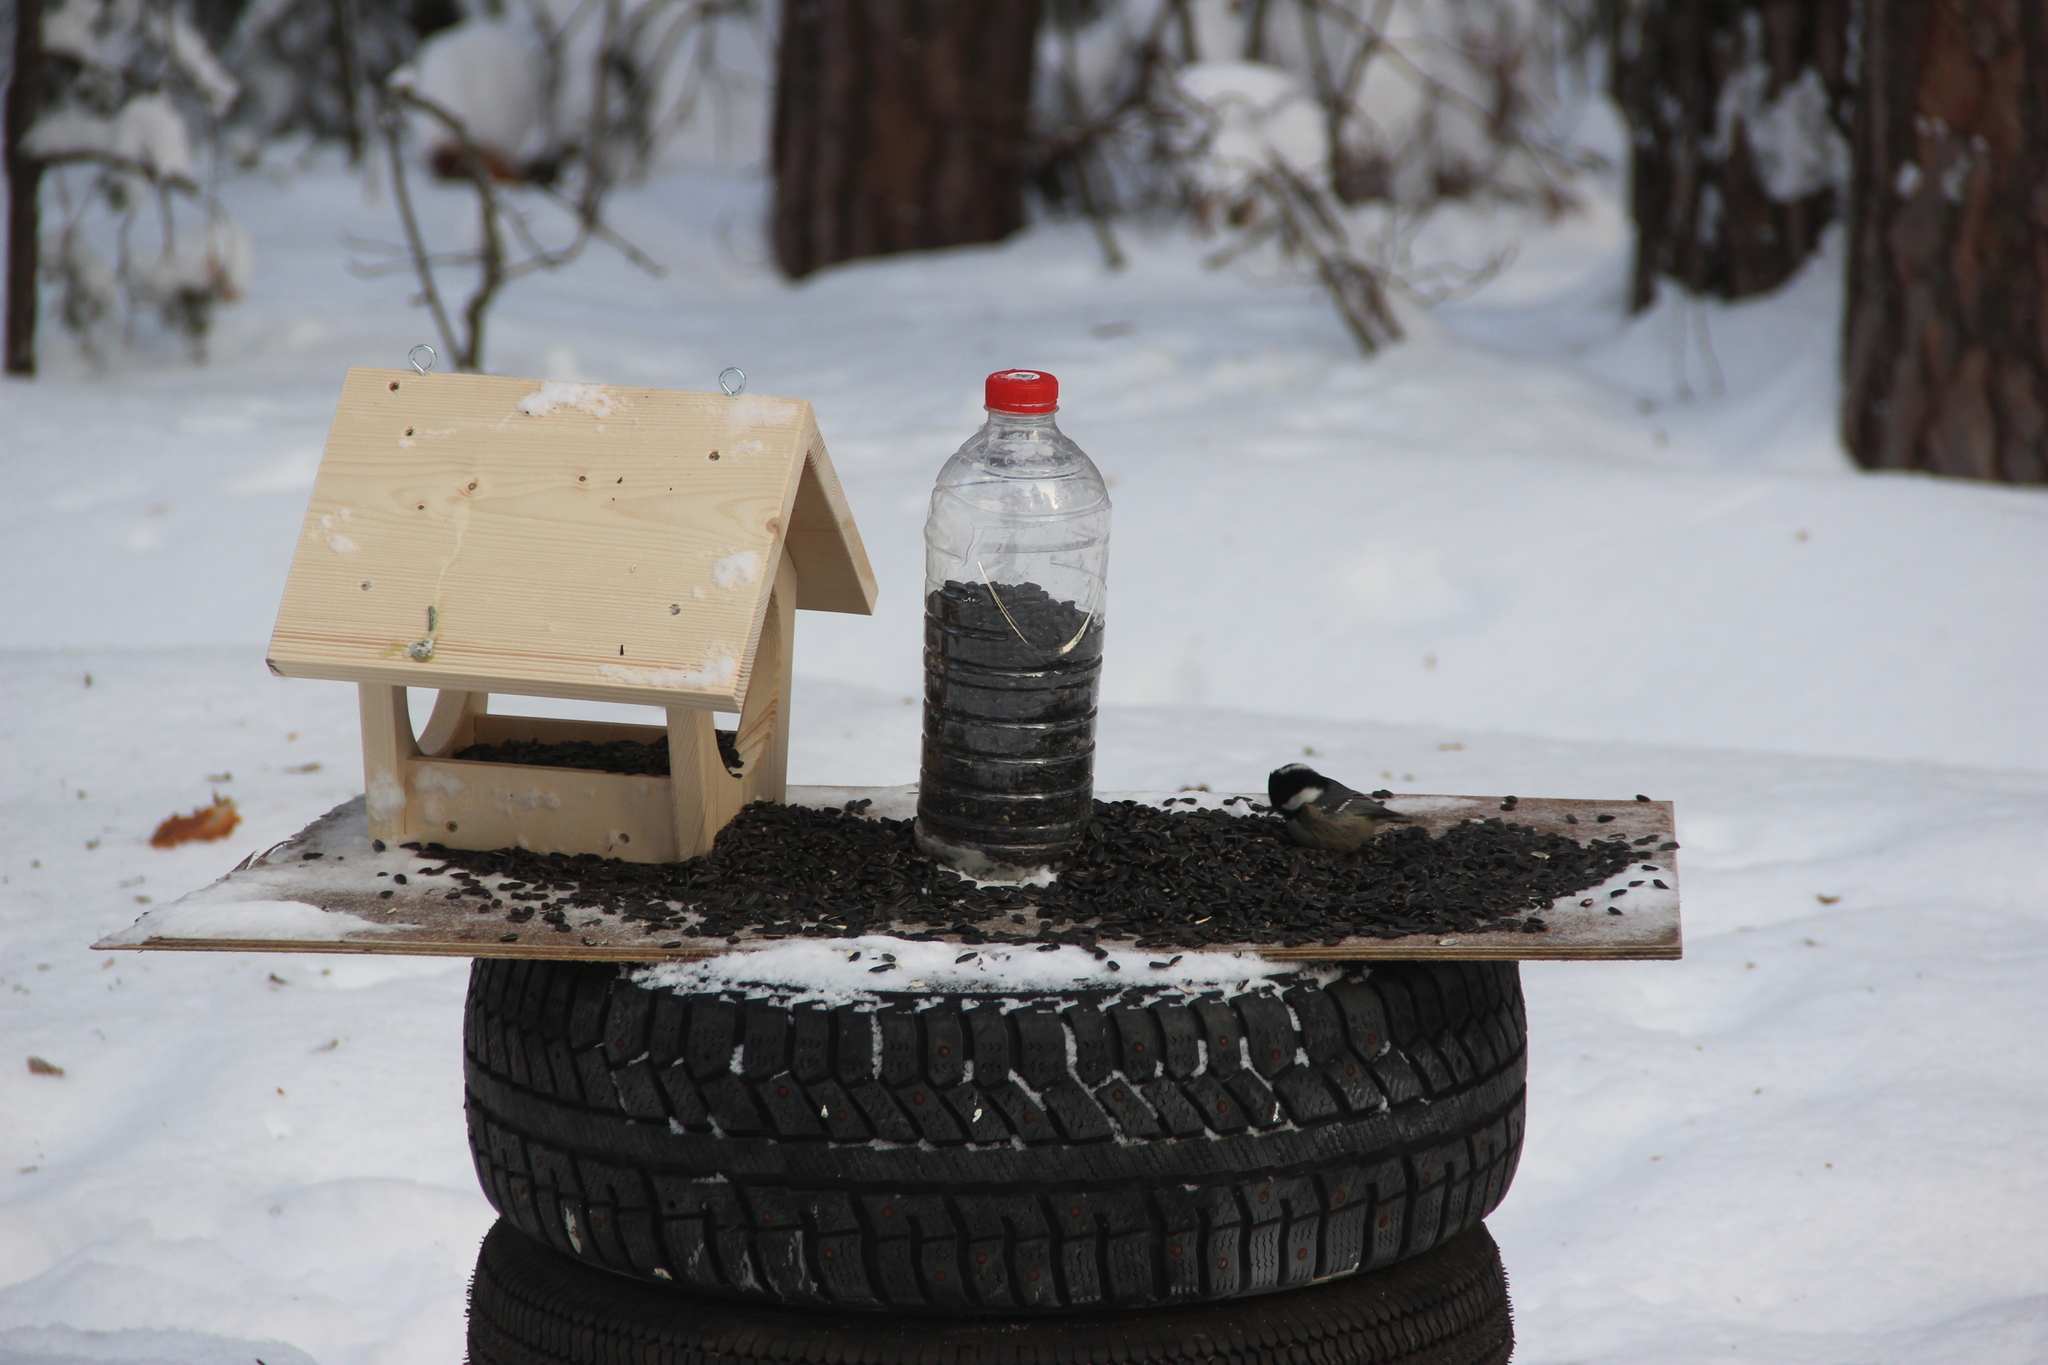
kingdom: Animalia
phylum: Chordata
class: Aves
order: Passeriformes
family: Paridae
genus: Periparus
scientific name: Periparus ater
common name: Coal tit
